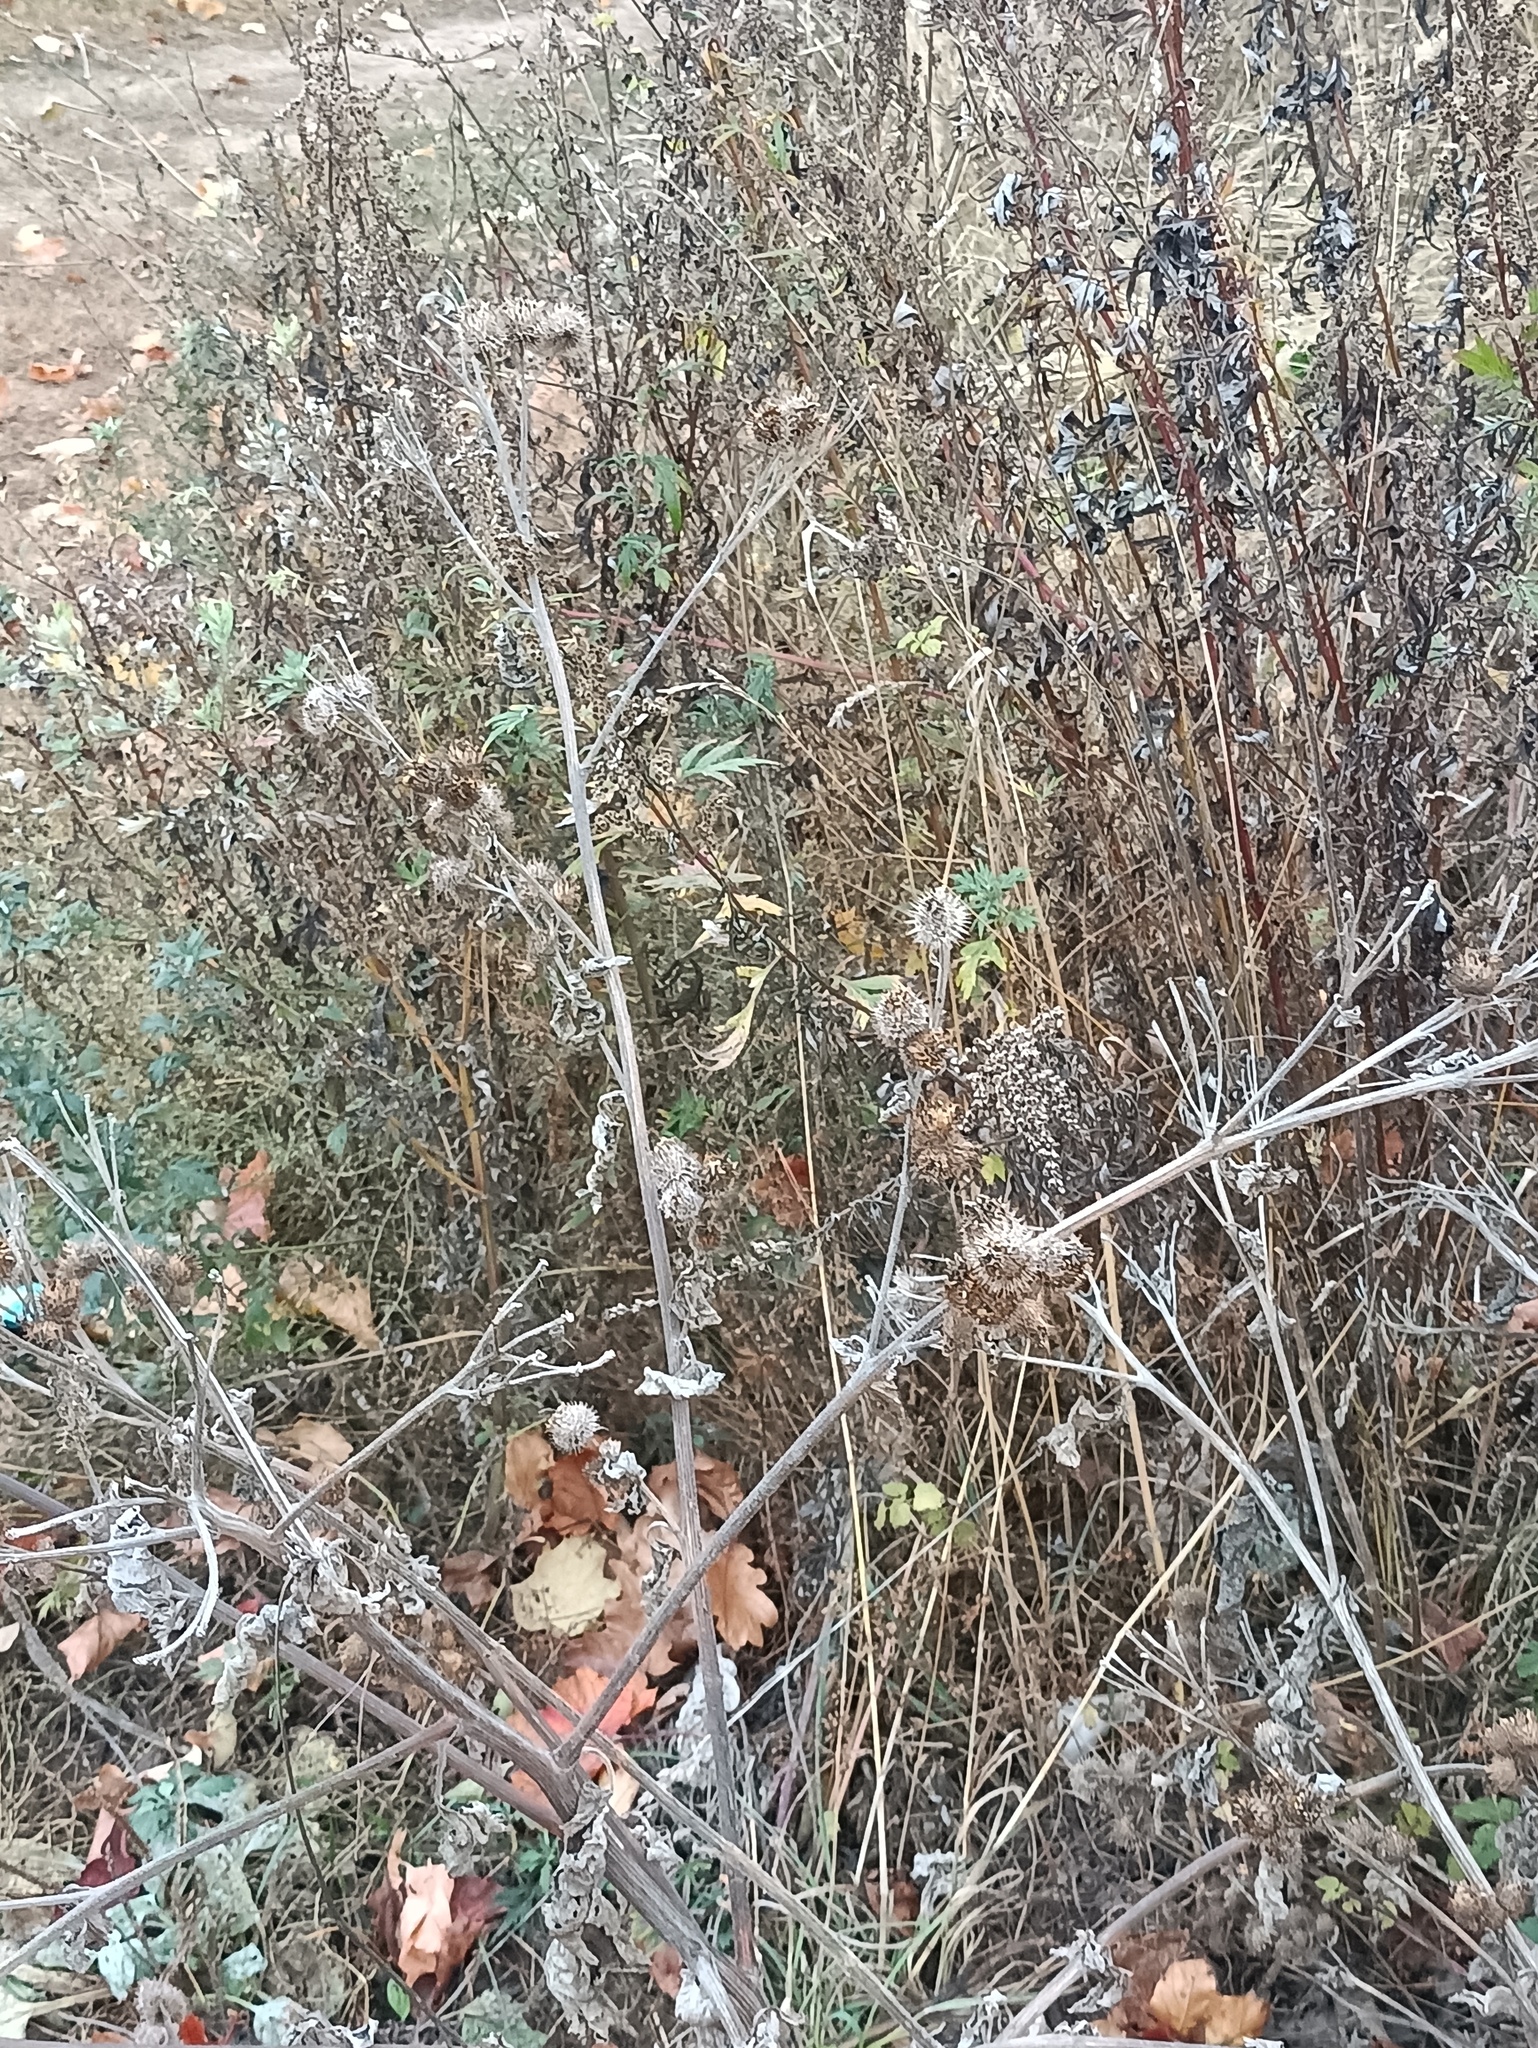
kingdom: Plantae
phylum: Tracheophyta
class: Magnoliopsida
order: Asterales
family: Asteraceae
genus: Arctium
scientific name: Arctium tomentosum
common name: Woolly burdock
